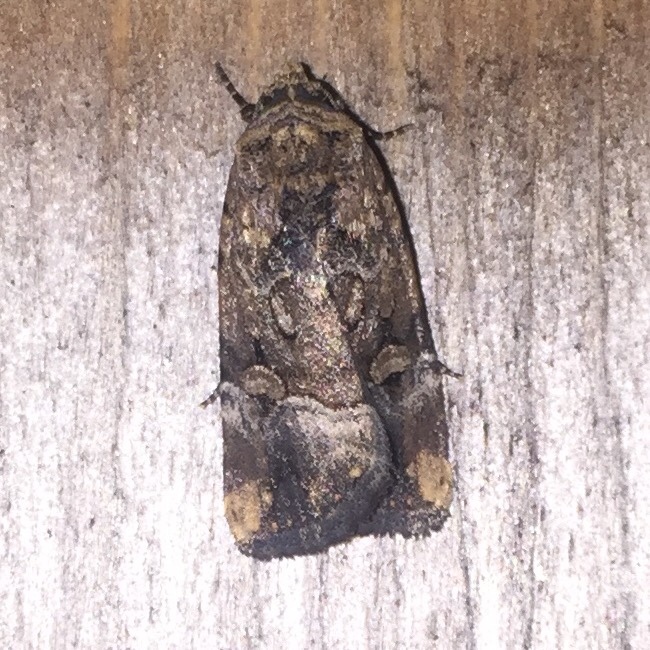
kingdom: Animalia
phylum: Arthropoda
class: Insecta
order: Lepidoptera
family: Noctuidae
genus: Elaphria
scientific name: Elaphria chalcedonia
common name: Chalcedony midget
